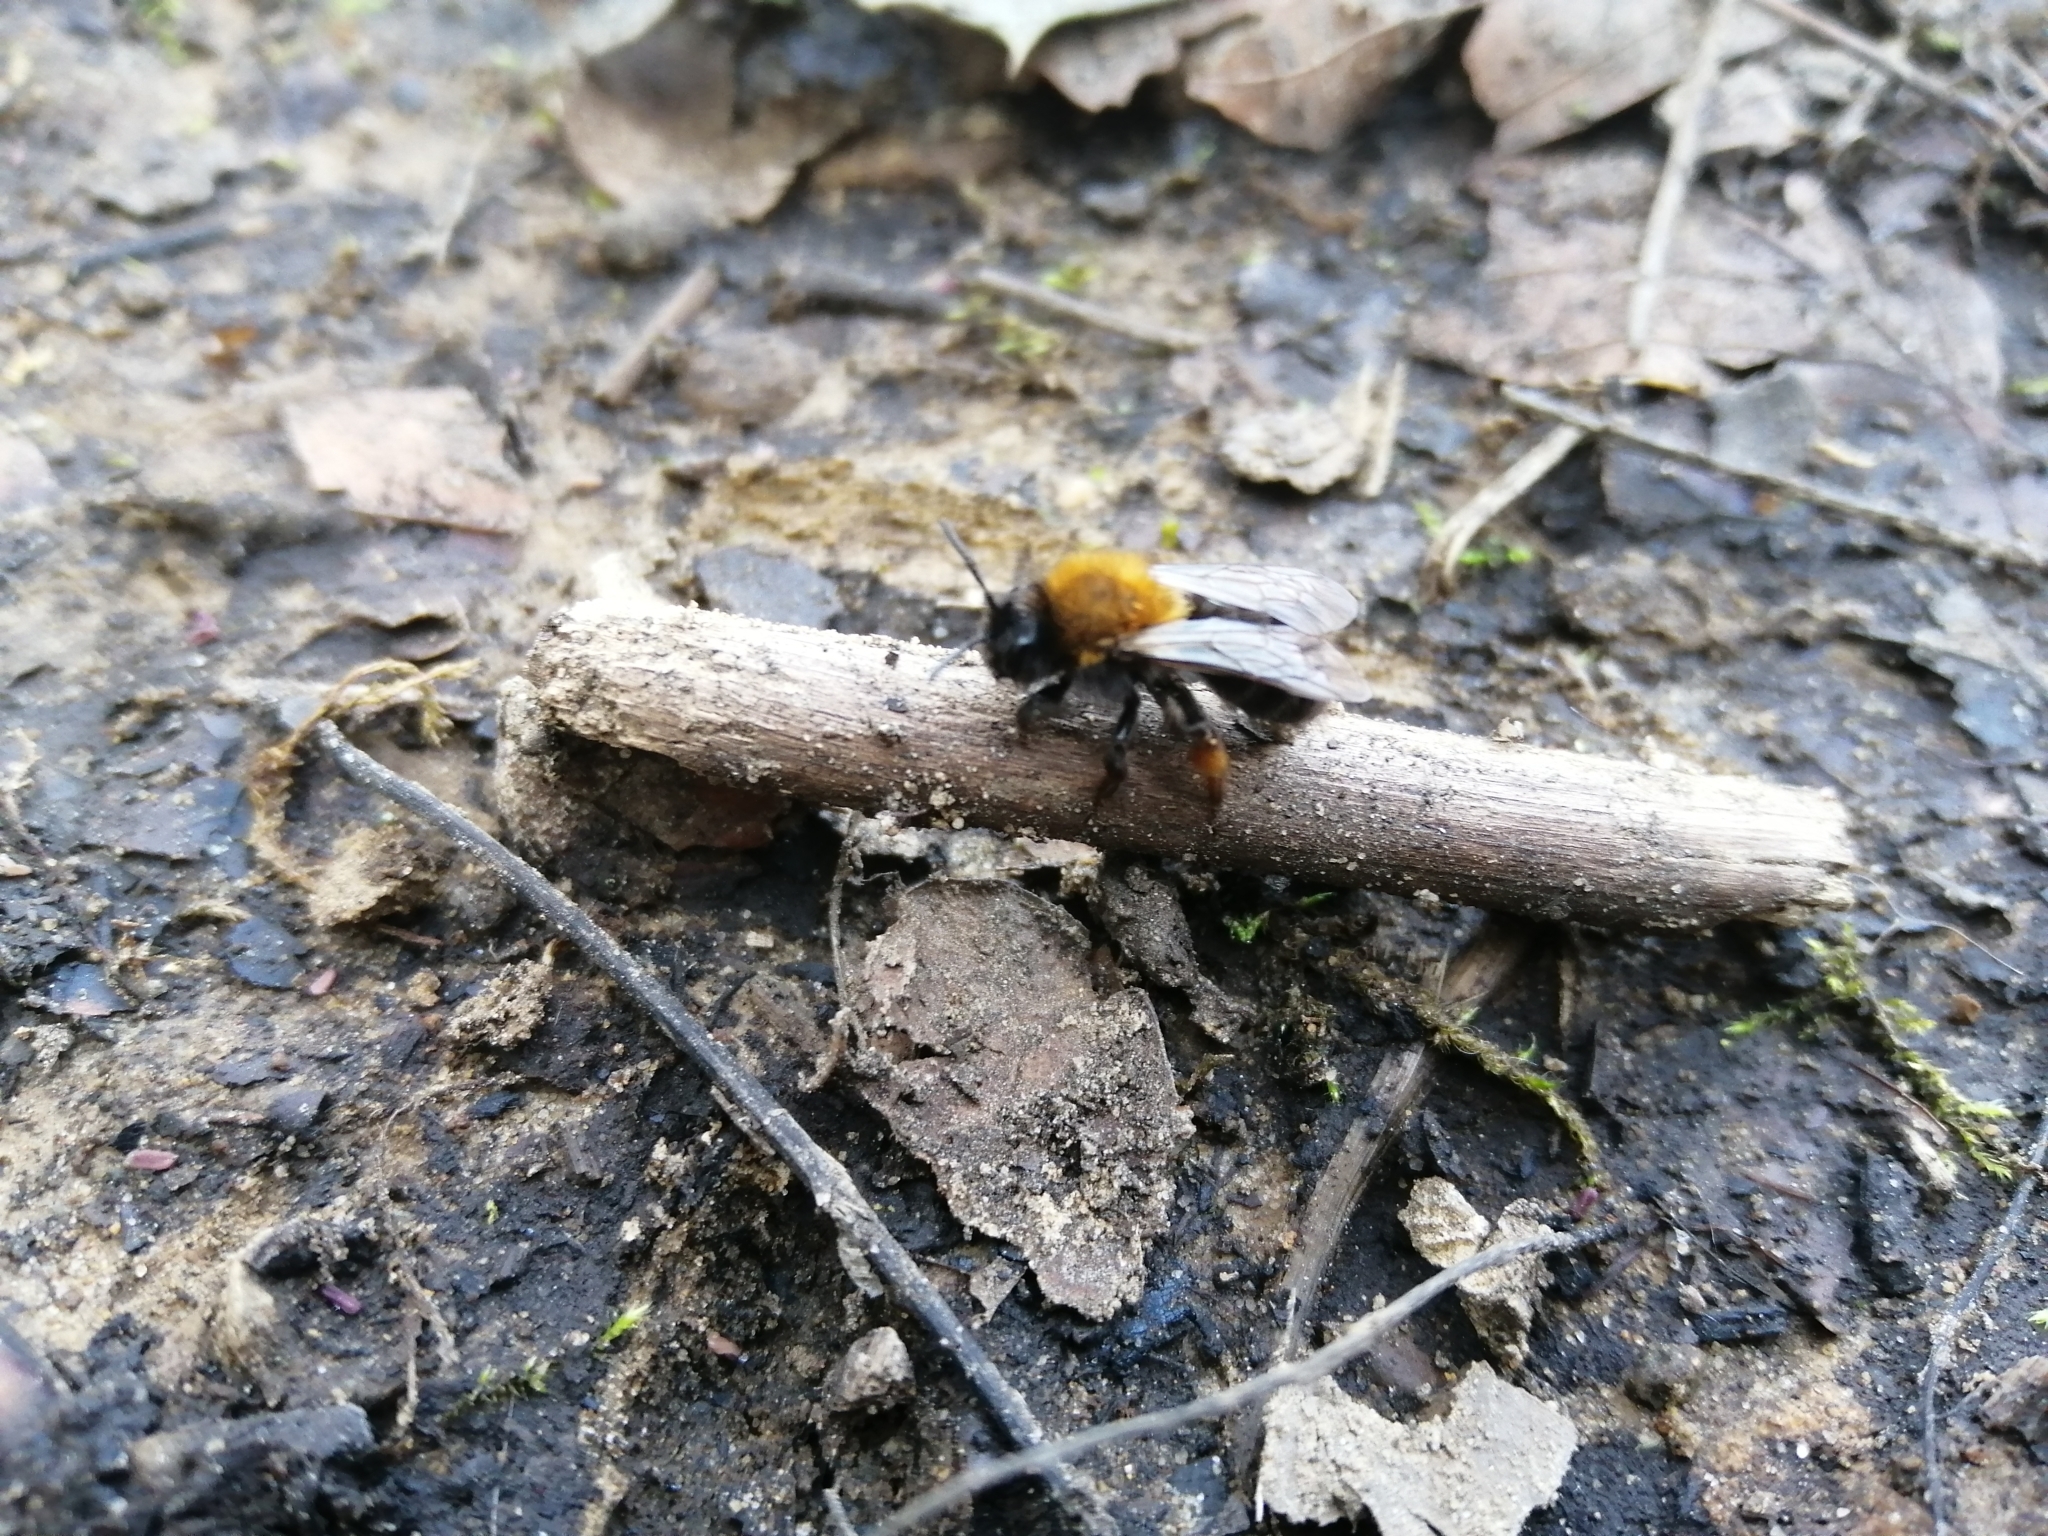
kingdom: Animalia
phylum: Arthropoda
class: Insecta
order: Hymenoptera
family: Andrenidae
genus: Andrena
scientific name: Andrena clarkella
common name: Clarke's mining bee
